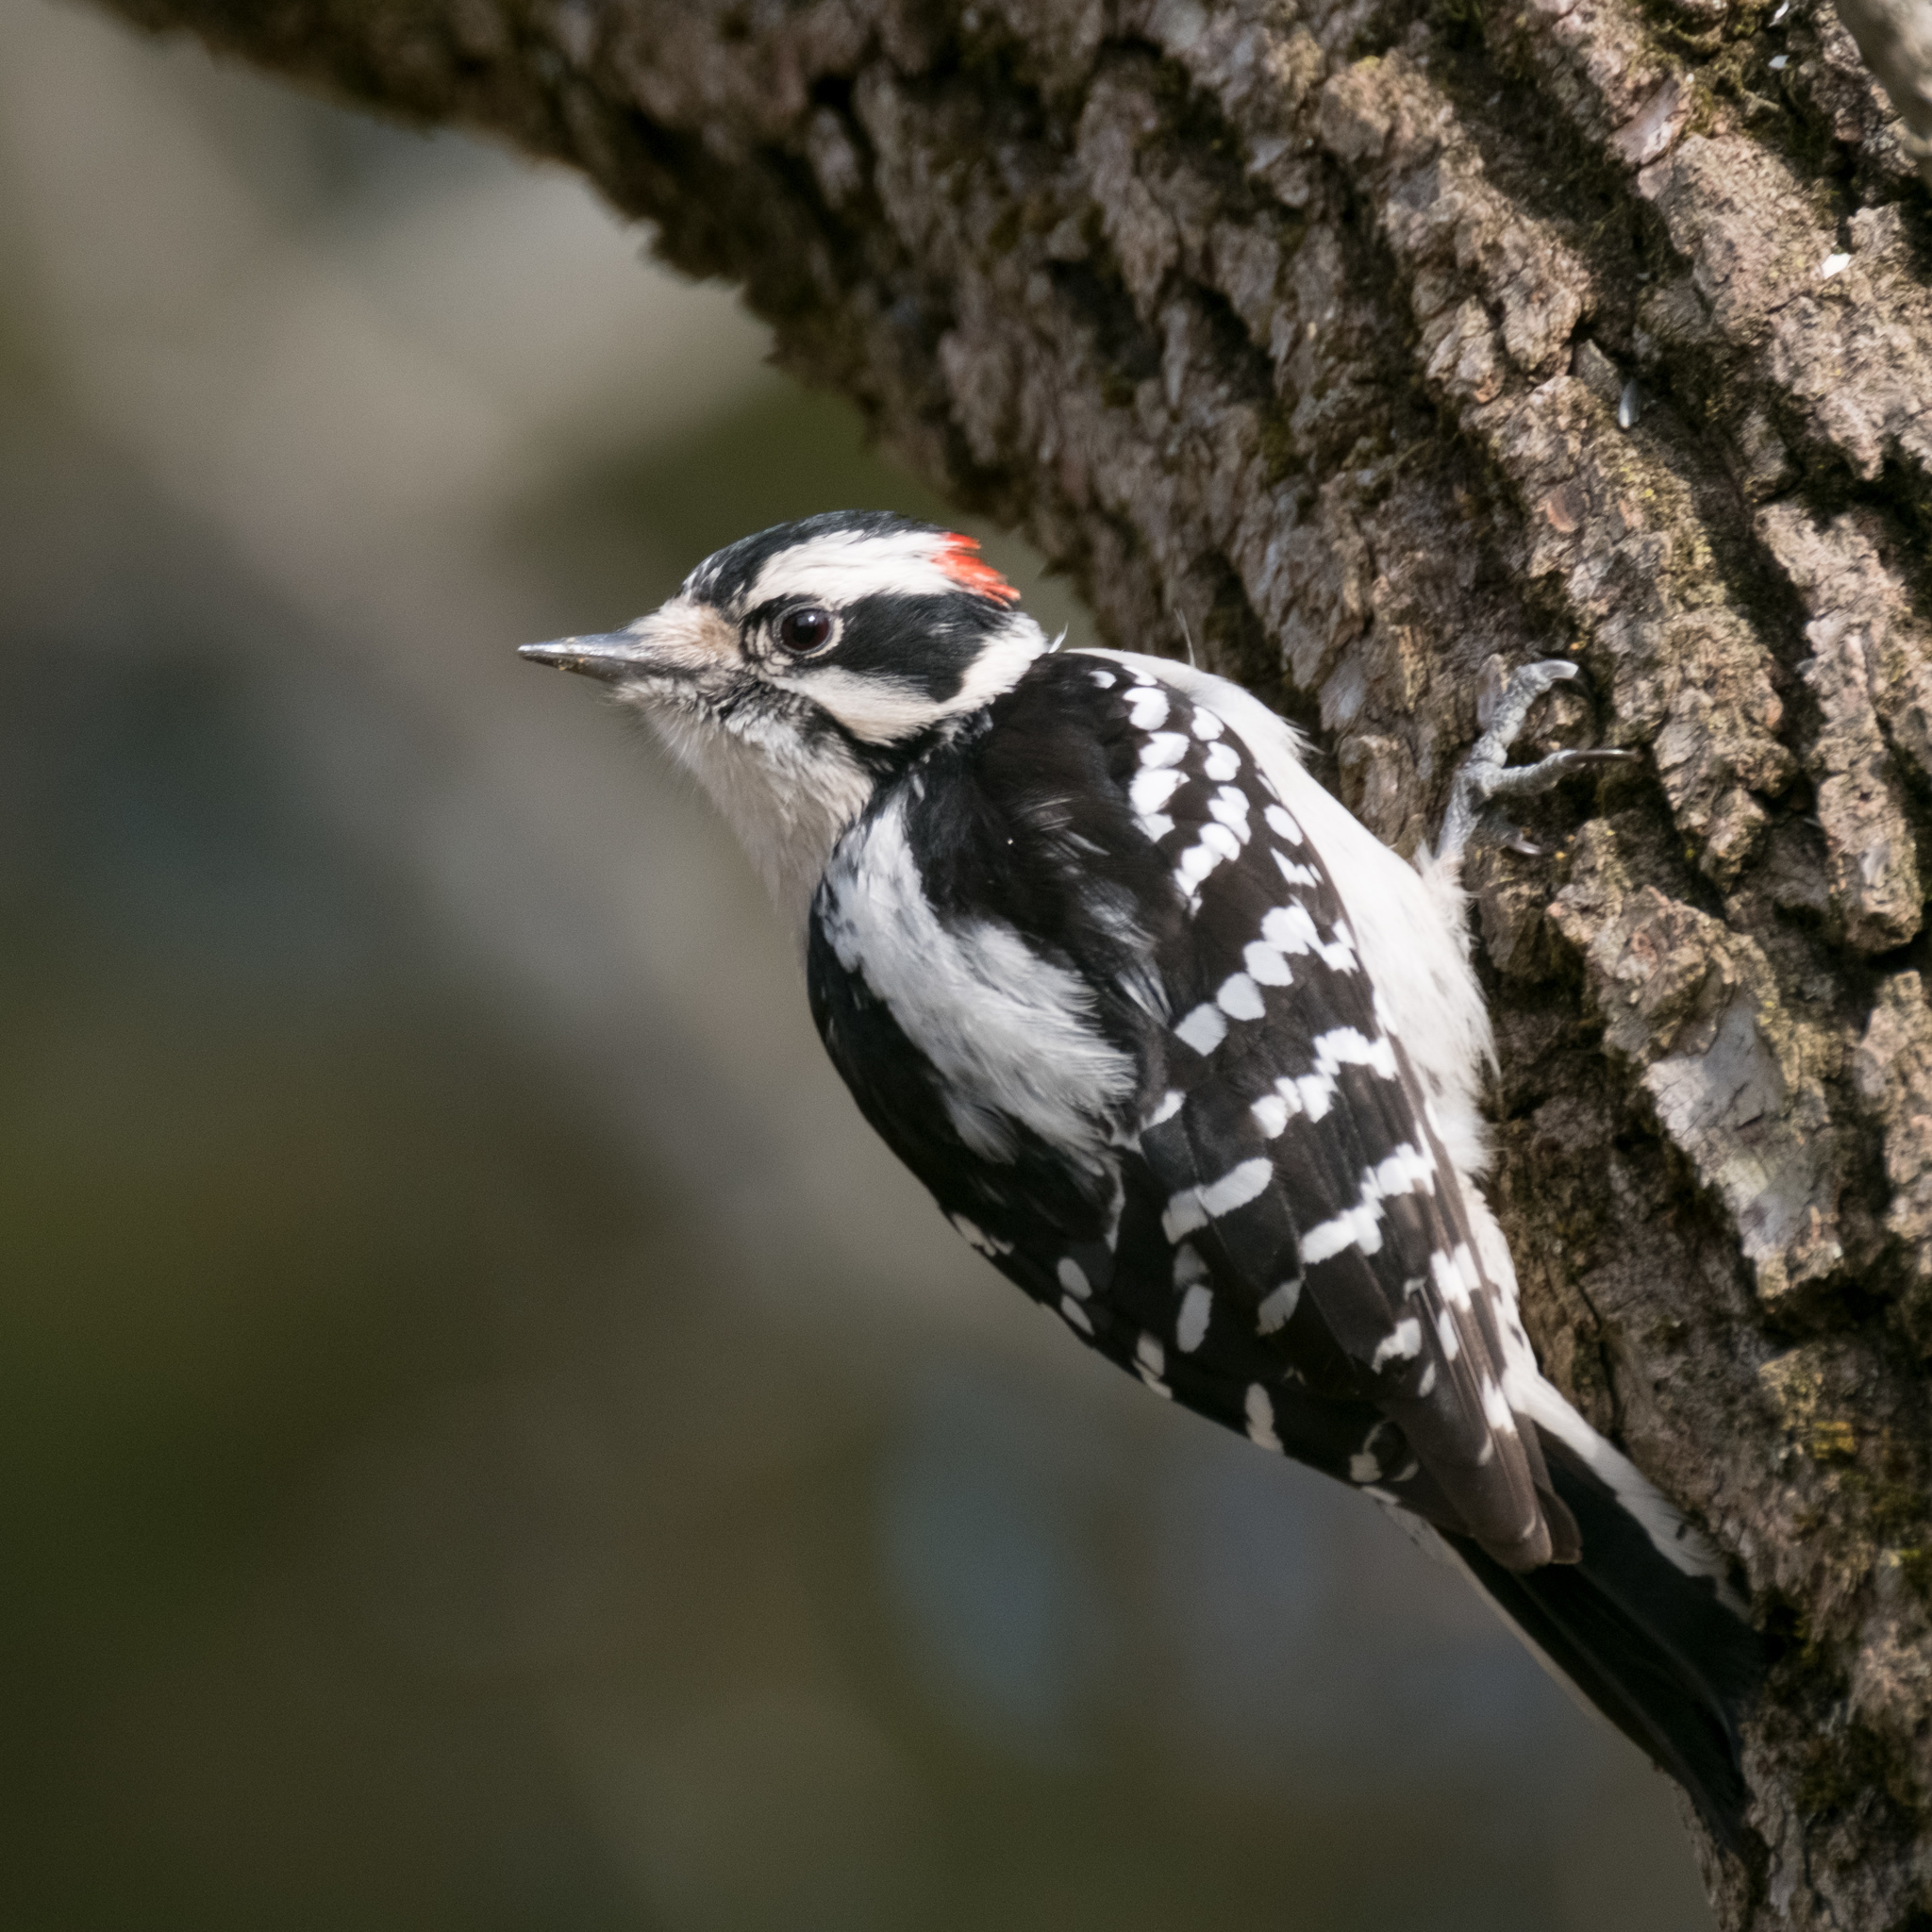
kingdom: Animalia
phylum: Chordata
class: Aves
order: Piciformes
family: Picidae
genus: Dryobates
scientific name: Dryobates pubescens
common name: Downy woodpecker
